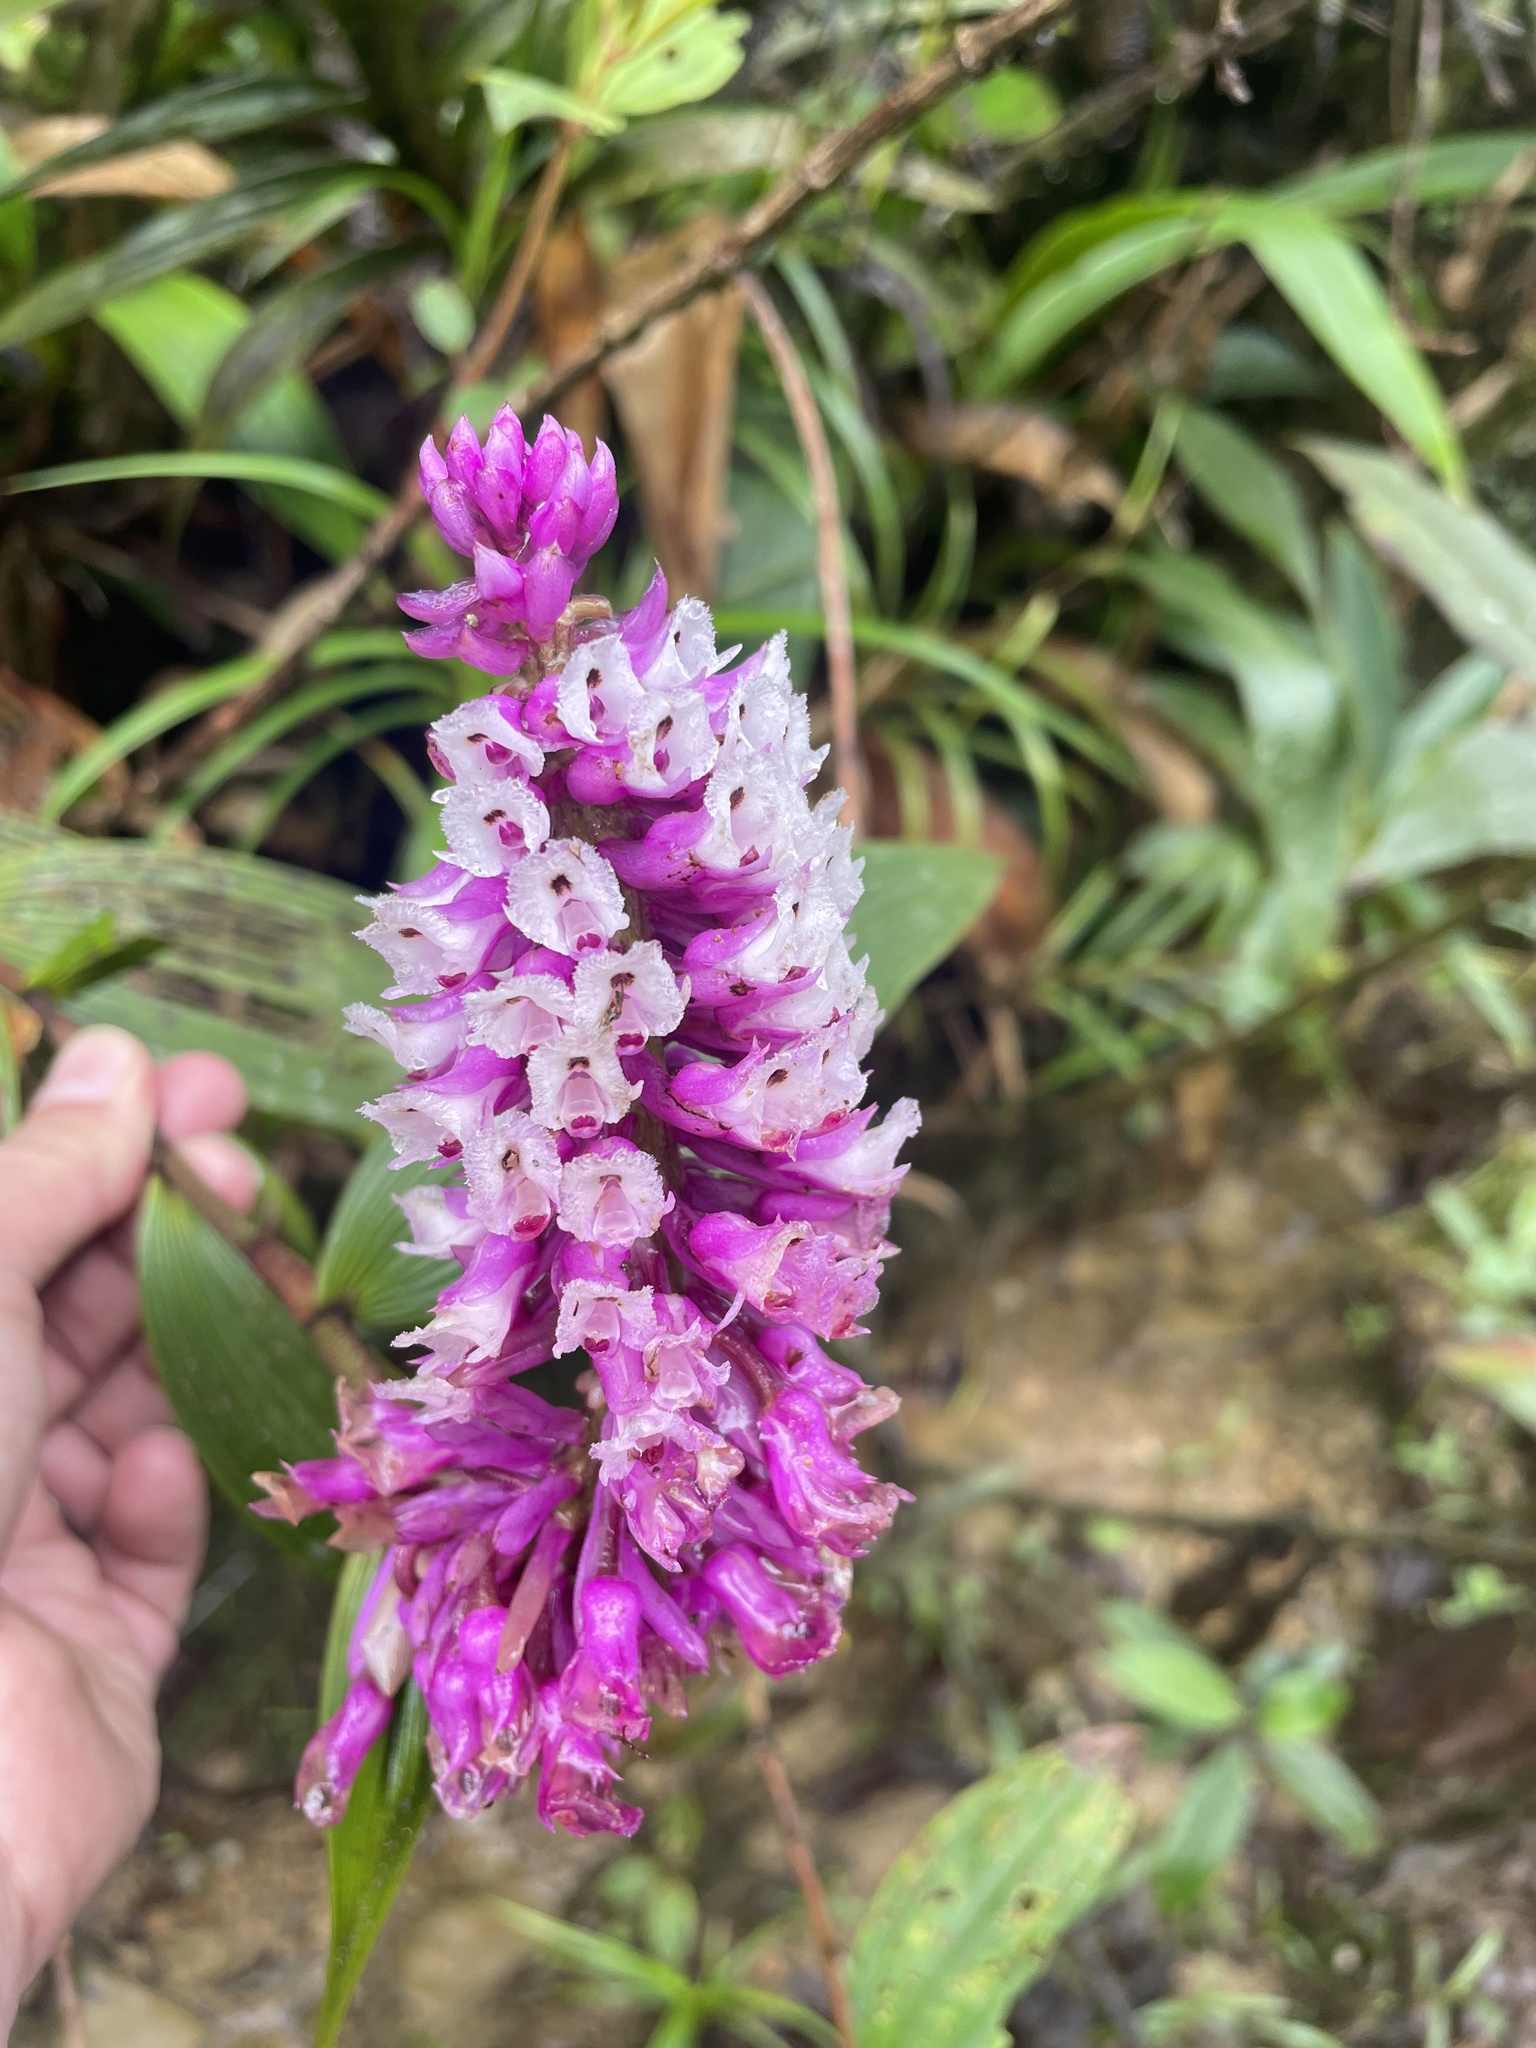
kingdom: Plantae
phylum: Tracheophyta
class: Liliopsida
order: Asparagales
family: Orchidaceae
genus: Elleanthus
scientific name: Elleanthus purpureus
